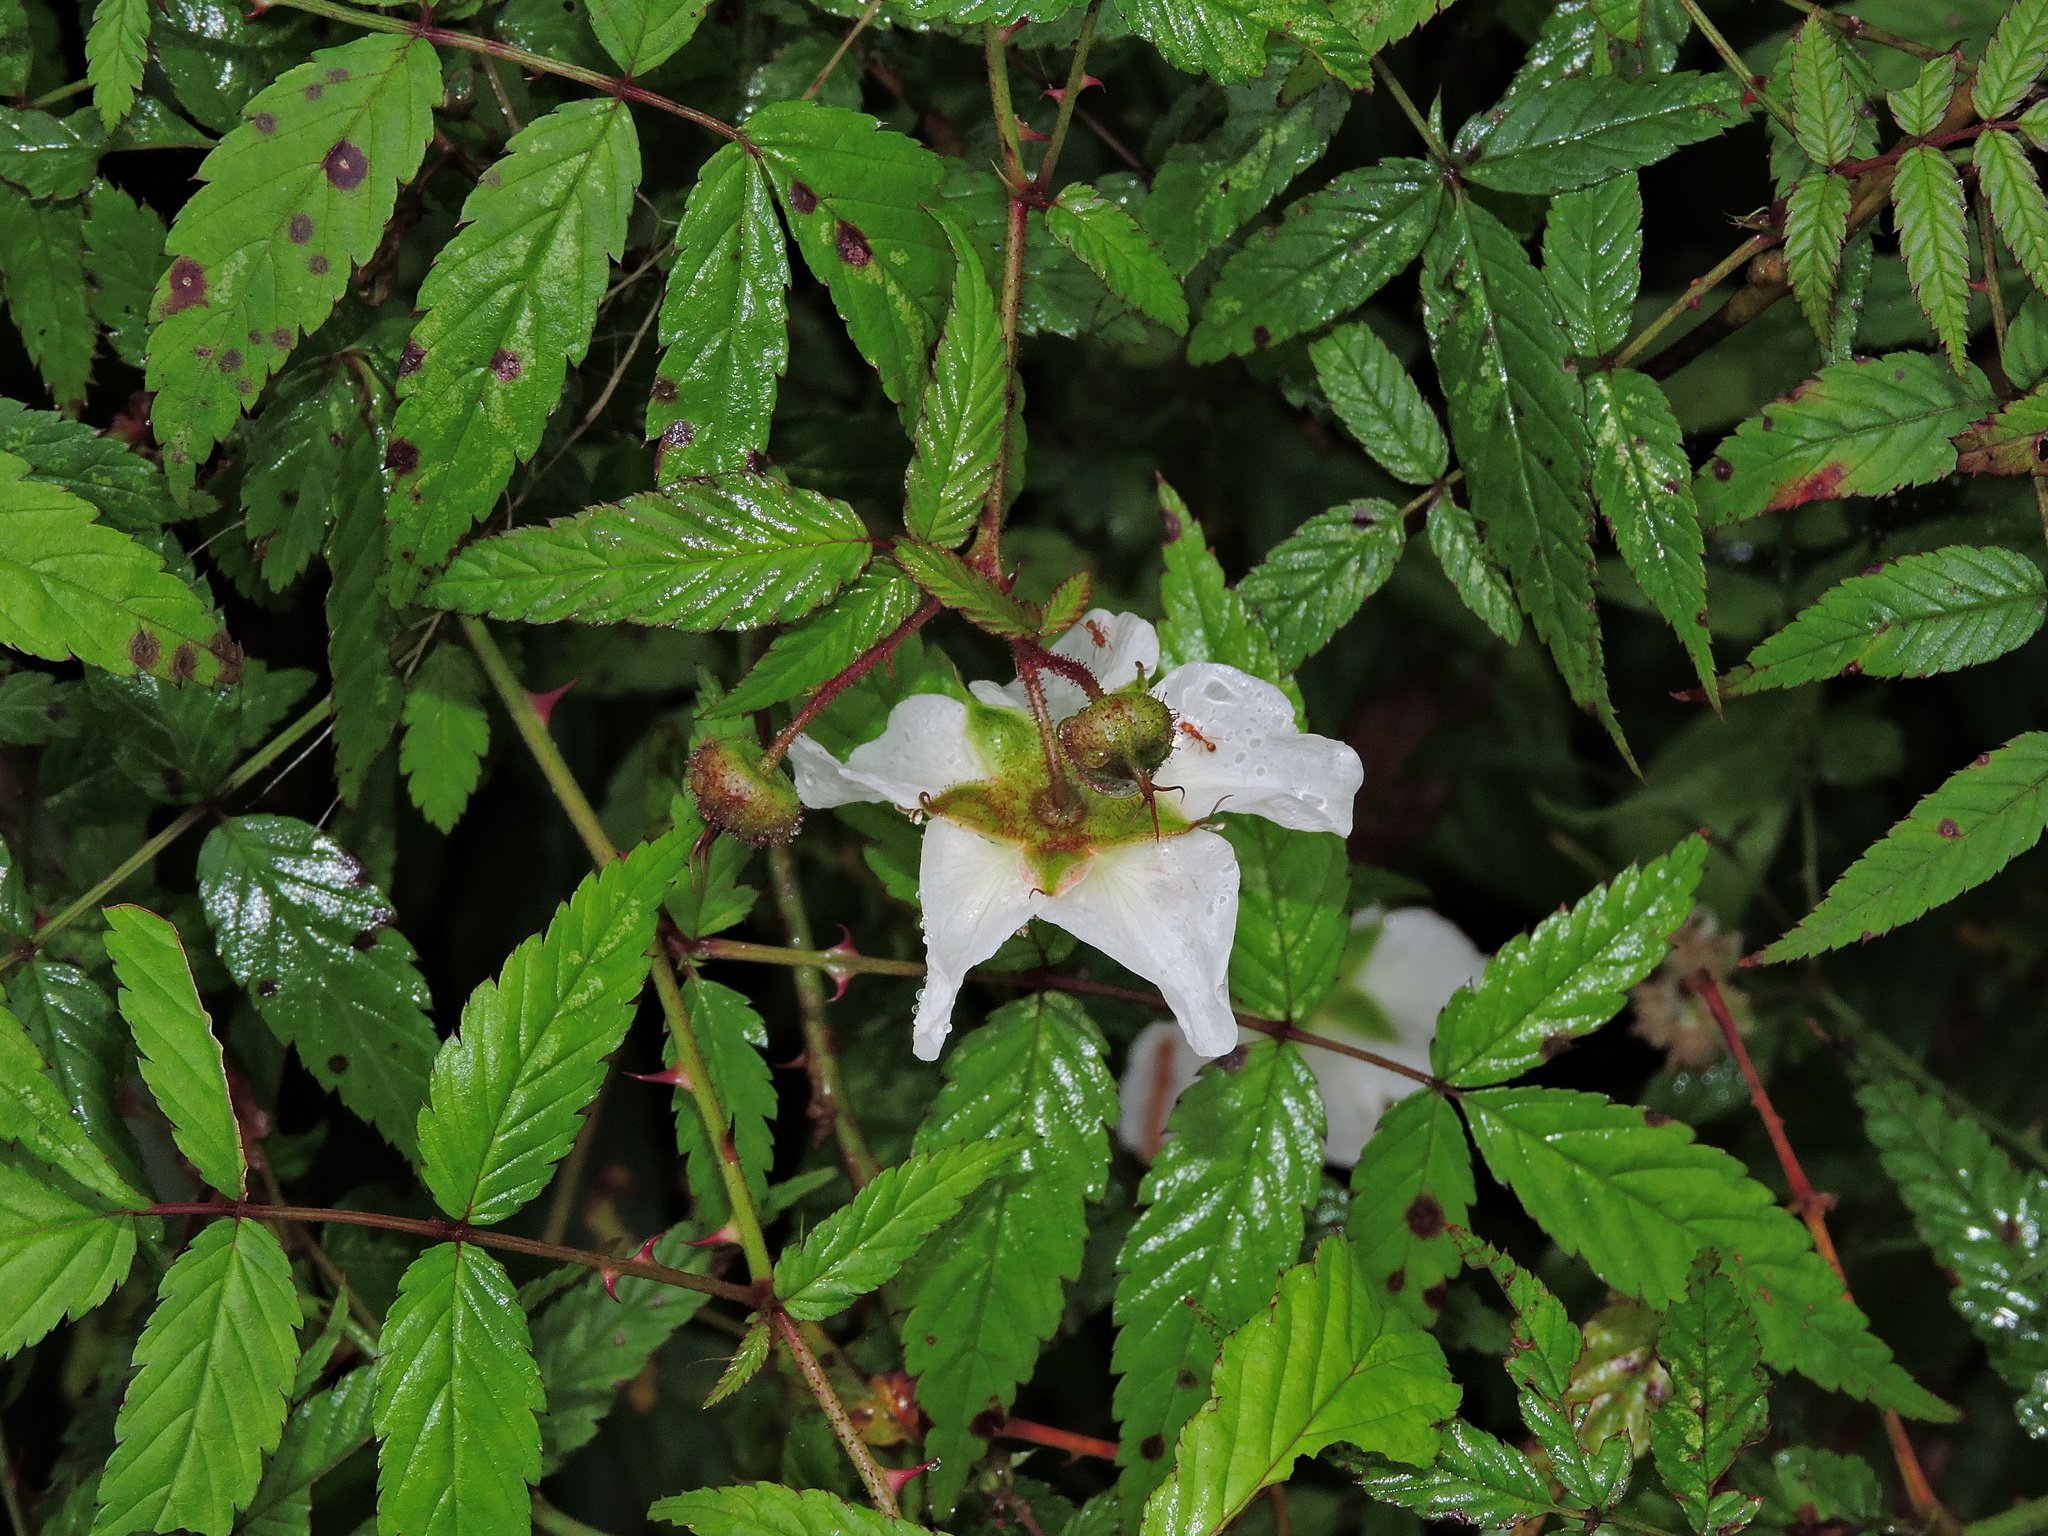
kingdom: Plantae
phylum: Tracheophyta
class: Magnoliopsida
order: Rosales
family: Rosaceae
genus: Rubus
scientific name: Rubus linearifoliolus
